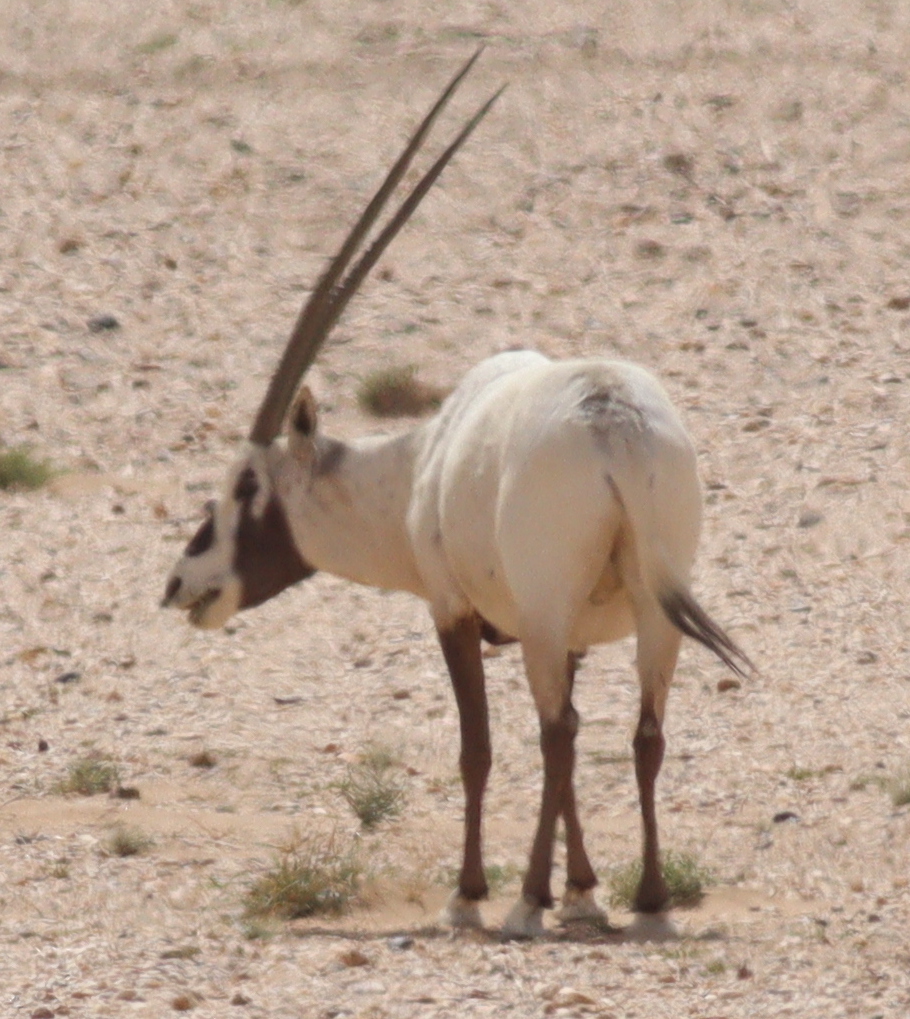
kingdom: Animalia
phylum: Chordata
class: Mammalia
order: Artiodactyla
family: Bovidae
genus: Oryx
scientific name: Oryx leucoryx
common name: Arabian oryx
